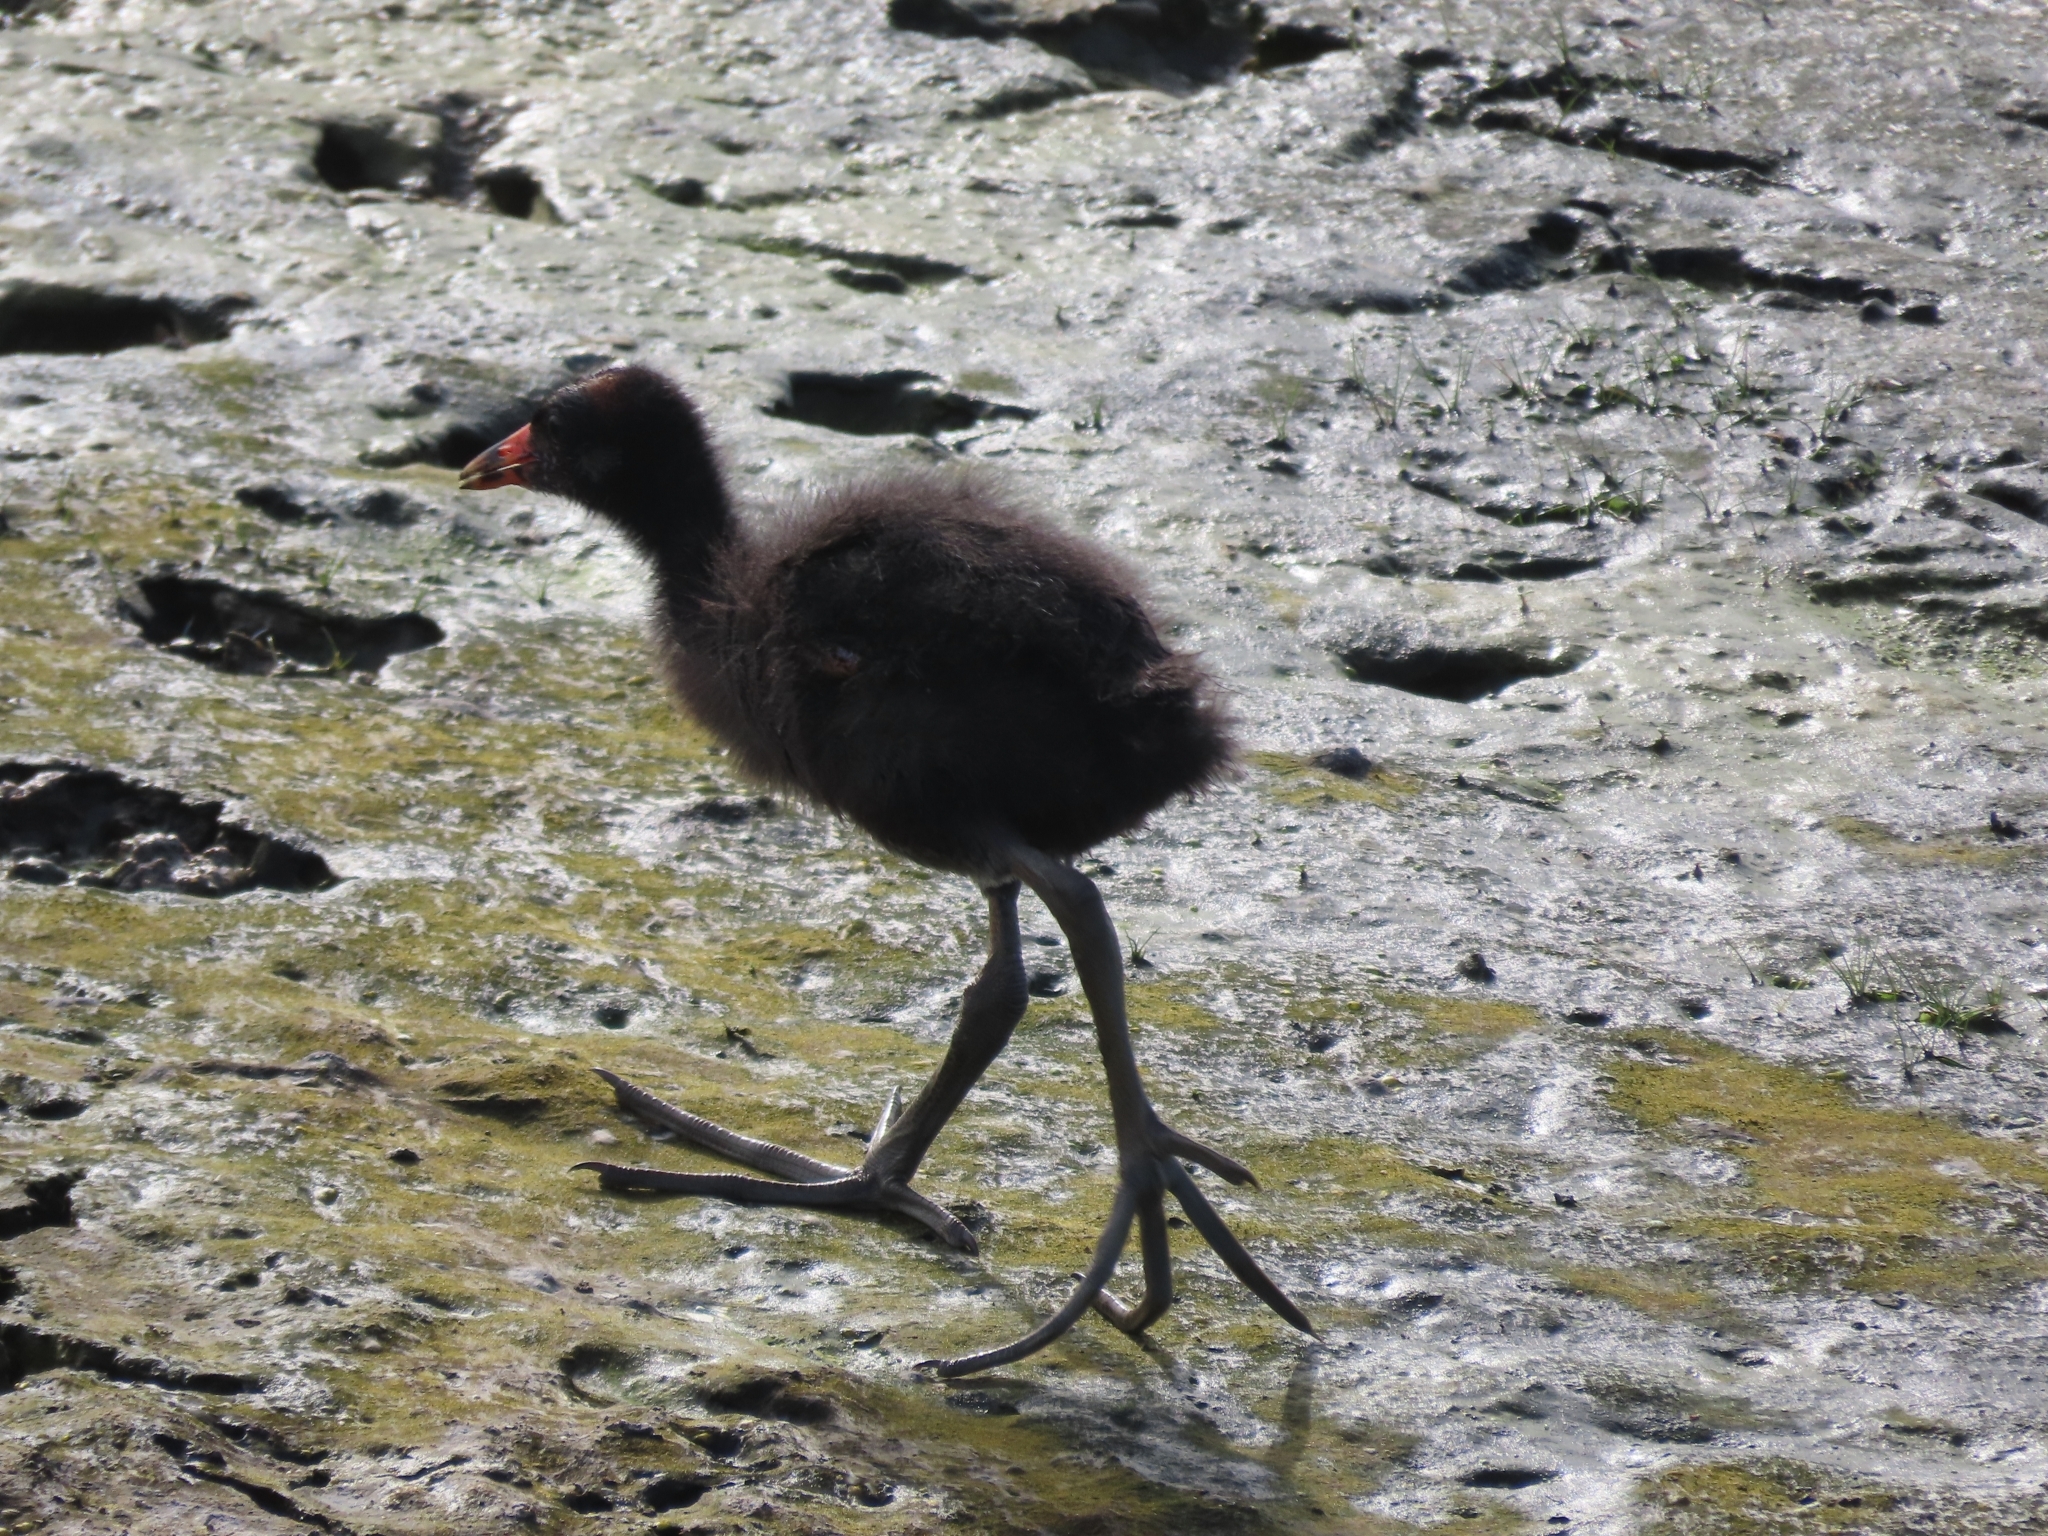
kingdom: Animalia
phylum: Chordata
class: Aves
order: Gruiformes
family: Rallidae
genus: Gallinula
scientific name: Gallinula chloropus
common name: Common moorhen
